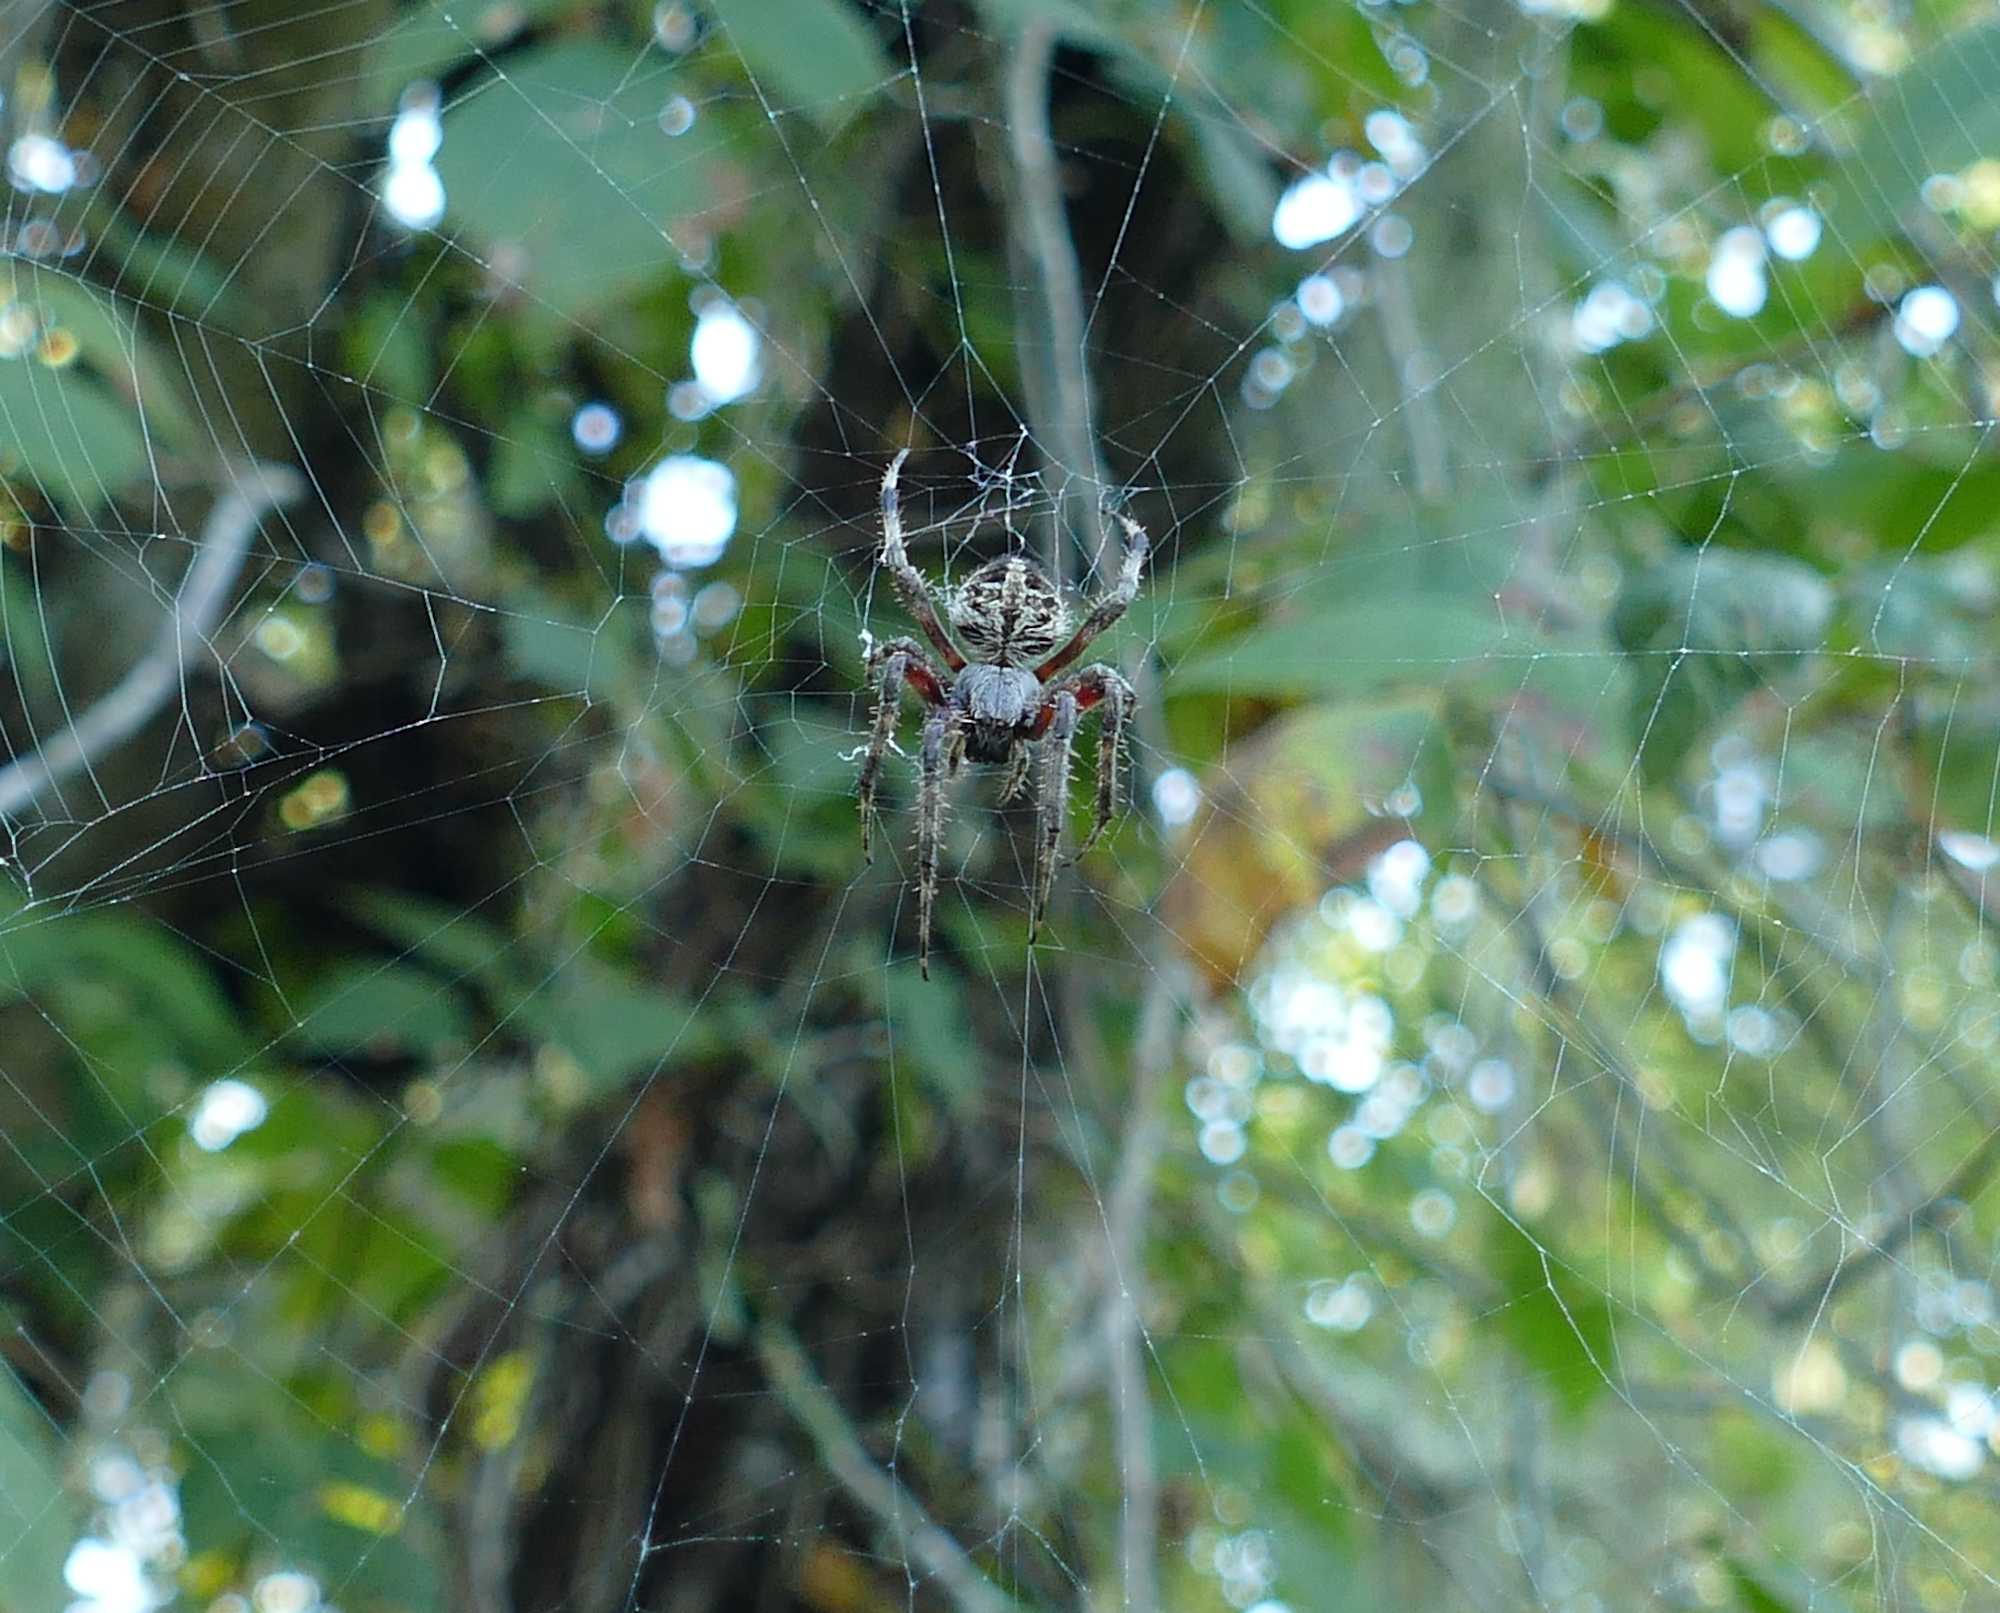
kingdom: Animalia
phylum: Arthropoda
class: Arachnida
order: Araneae
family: Araneidae
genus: Neoscona
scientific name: Neoscona domiciliorum
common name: Red-femured spotted orbweaver
